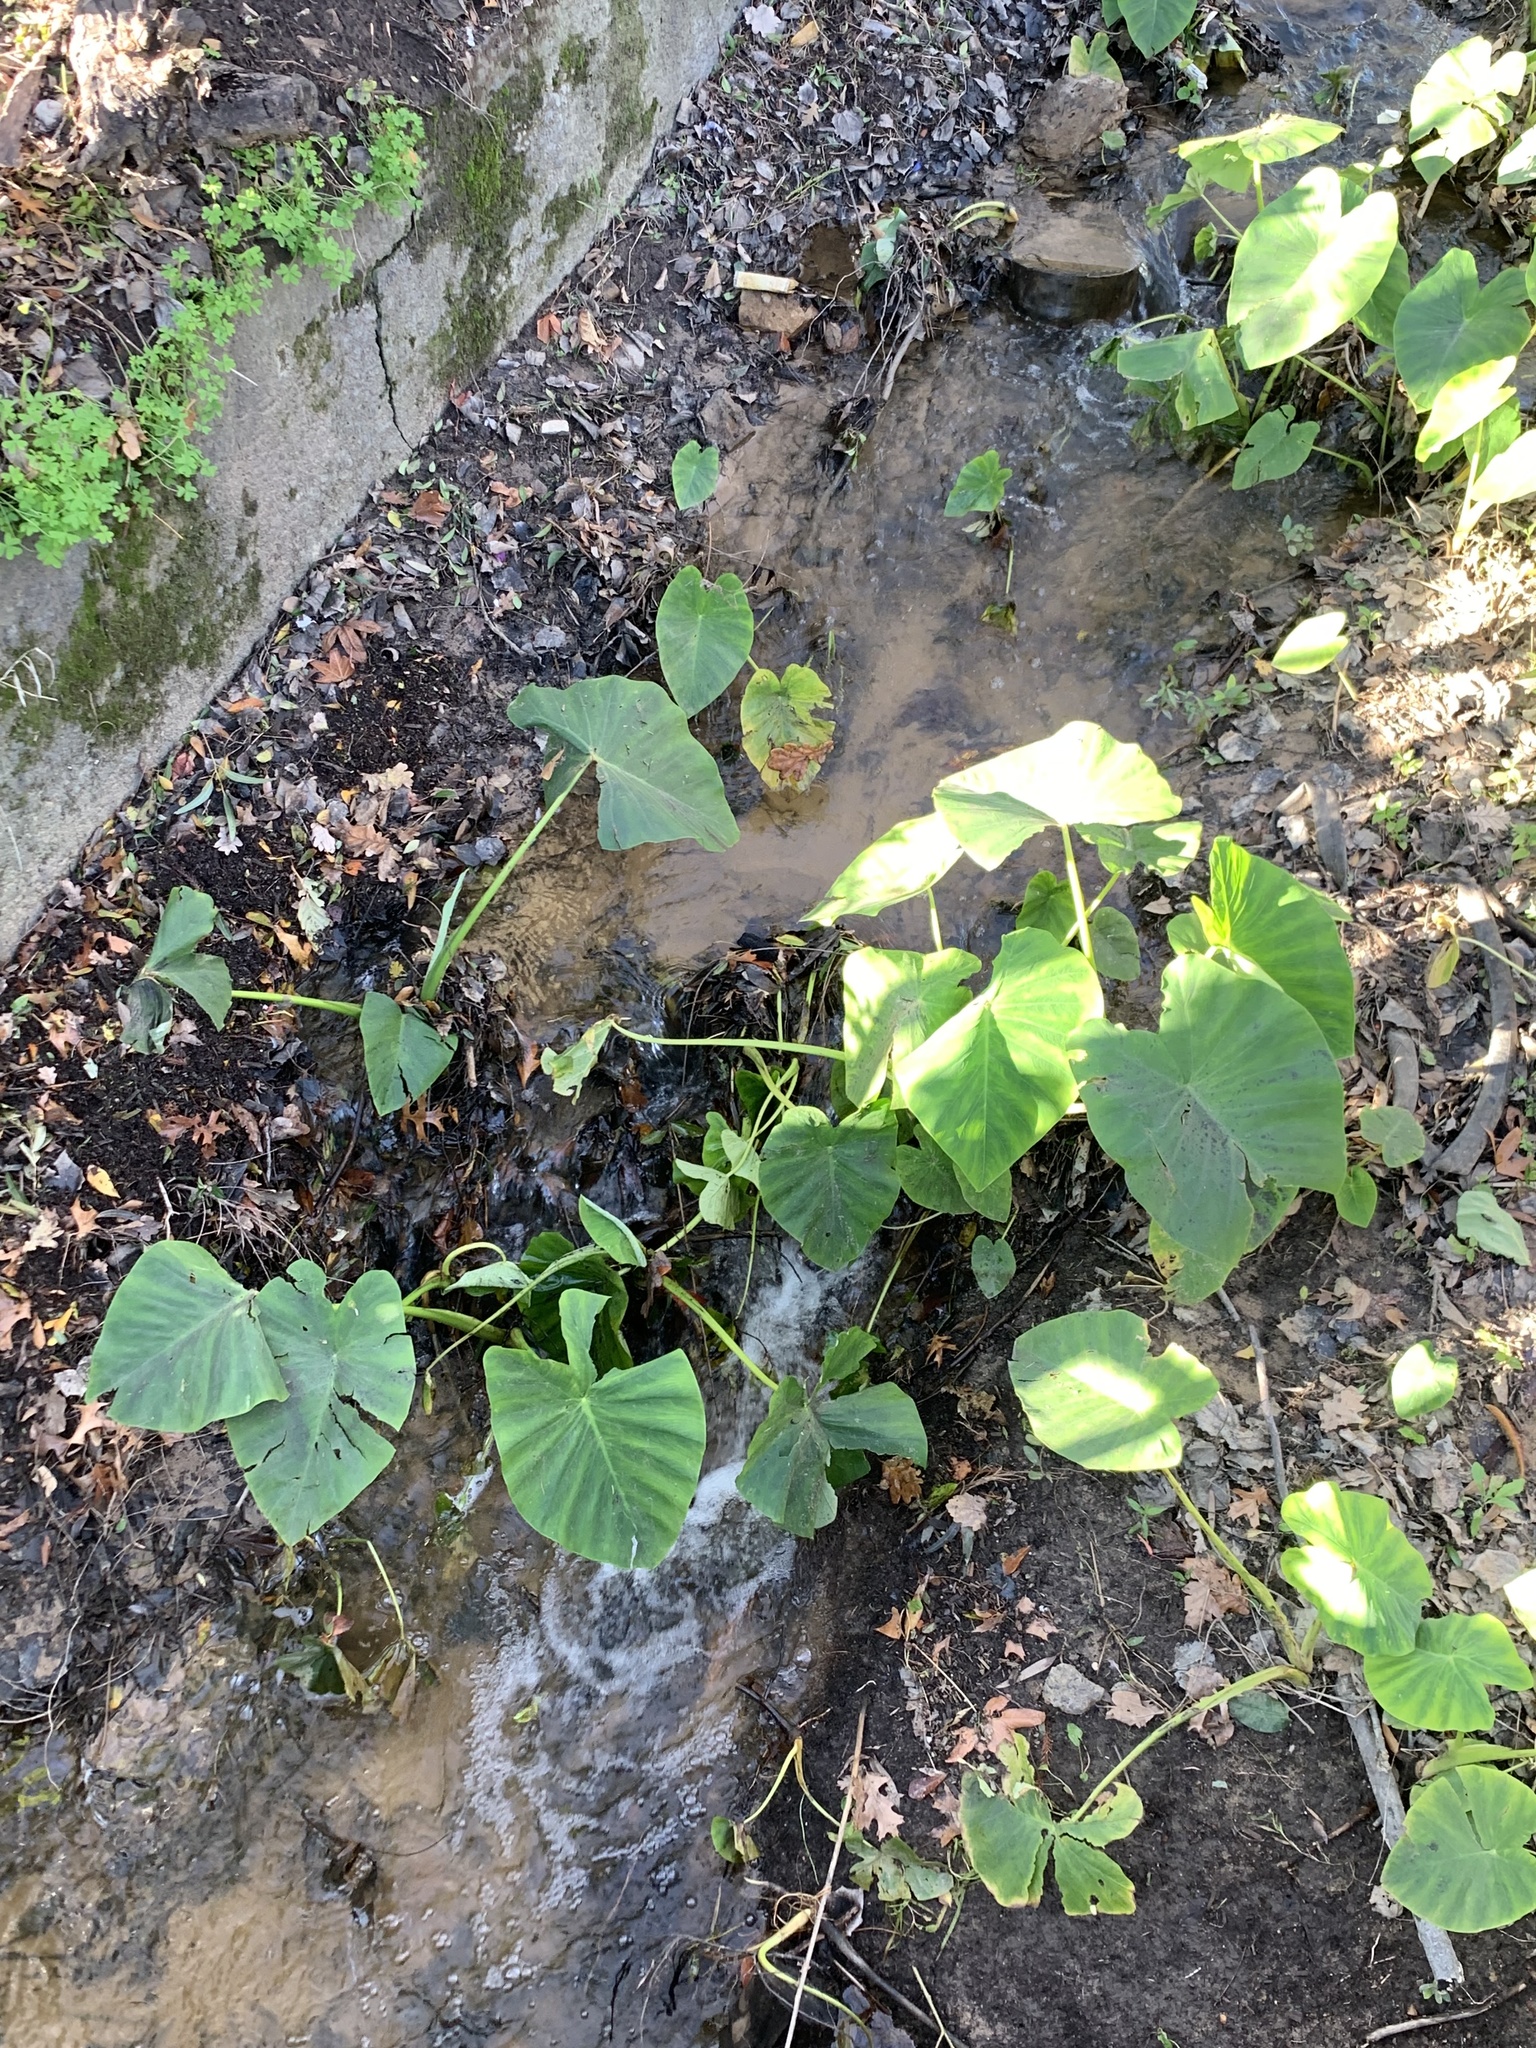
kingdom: Plantae
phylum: Tracheophyta
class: Liliopsida
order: Alismatales
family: Araceae
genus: Colocasia
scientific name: Colocasia esculenta
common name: Taro
